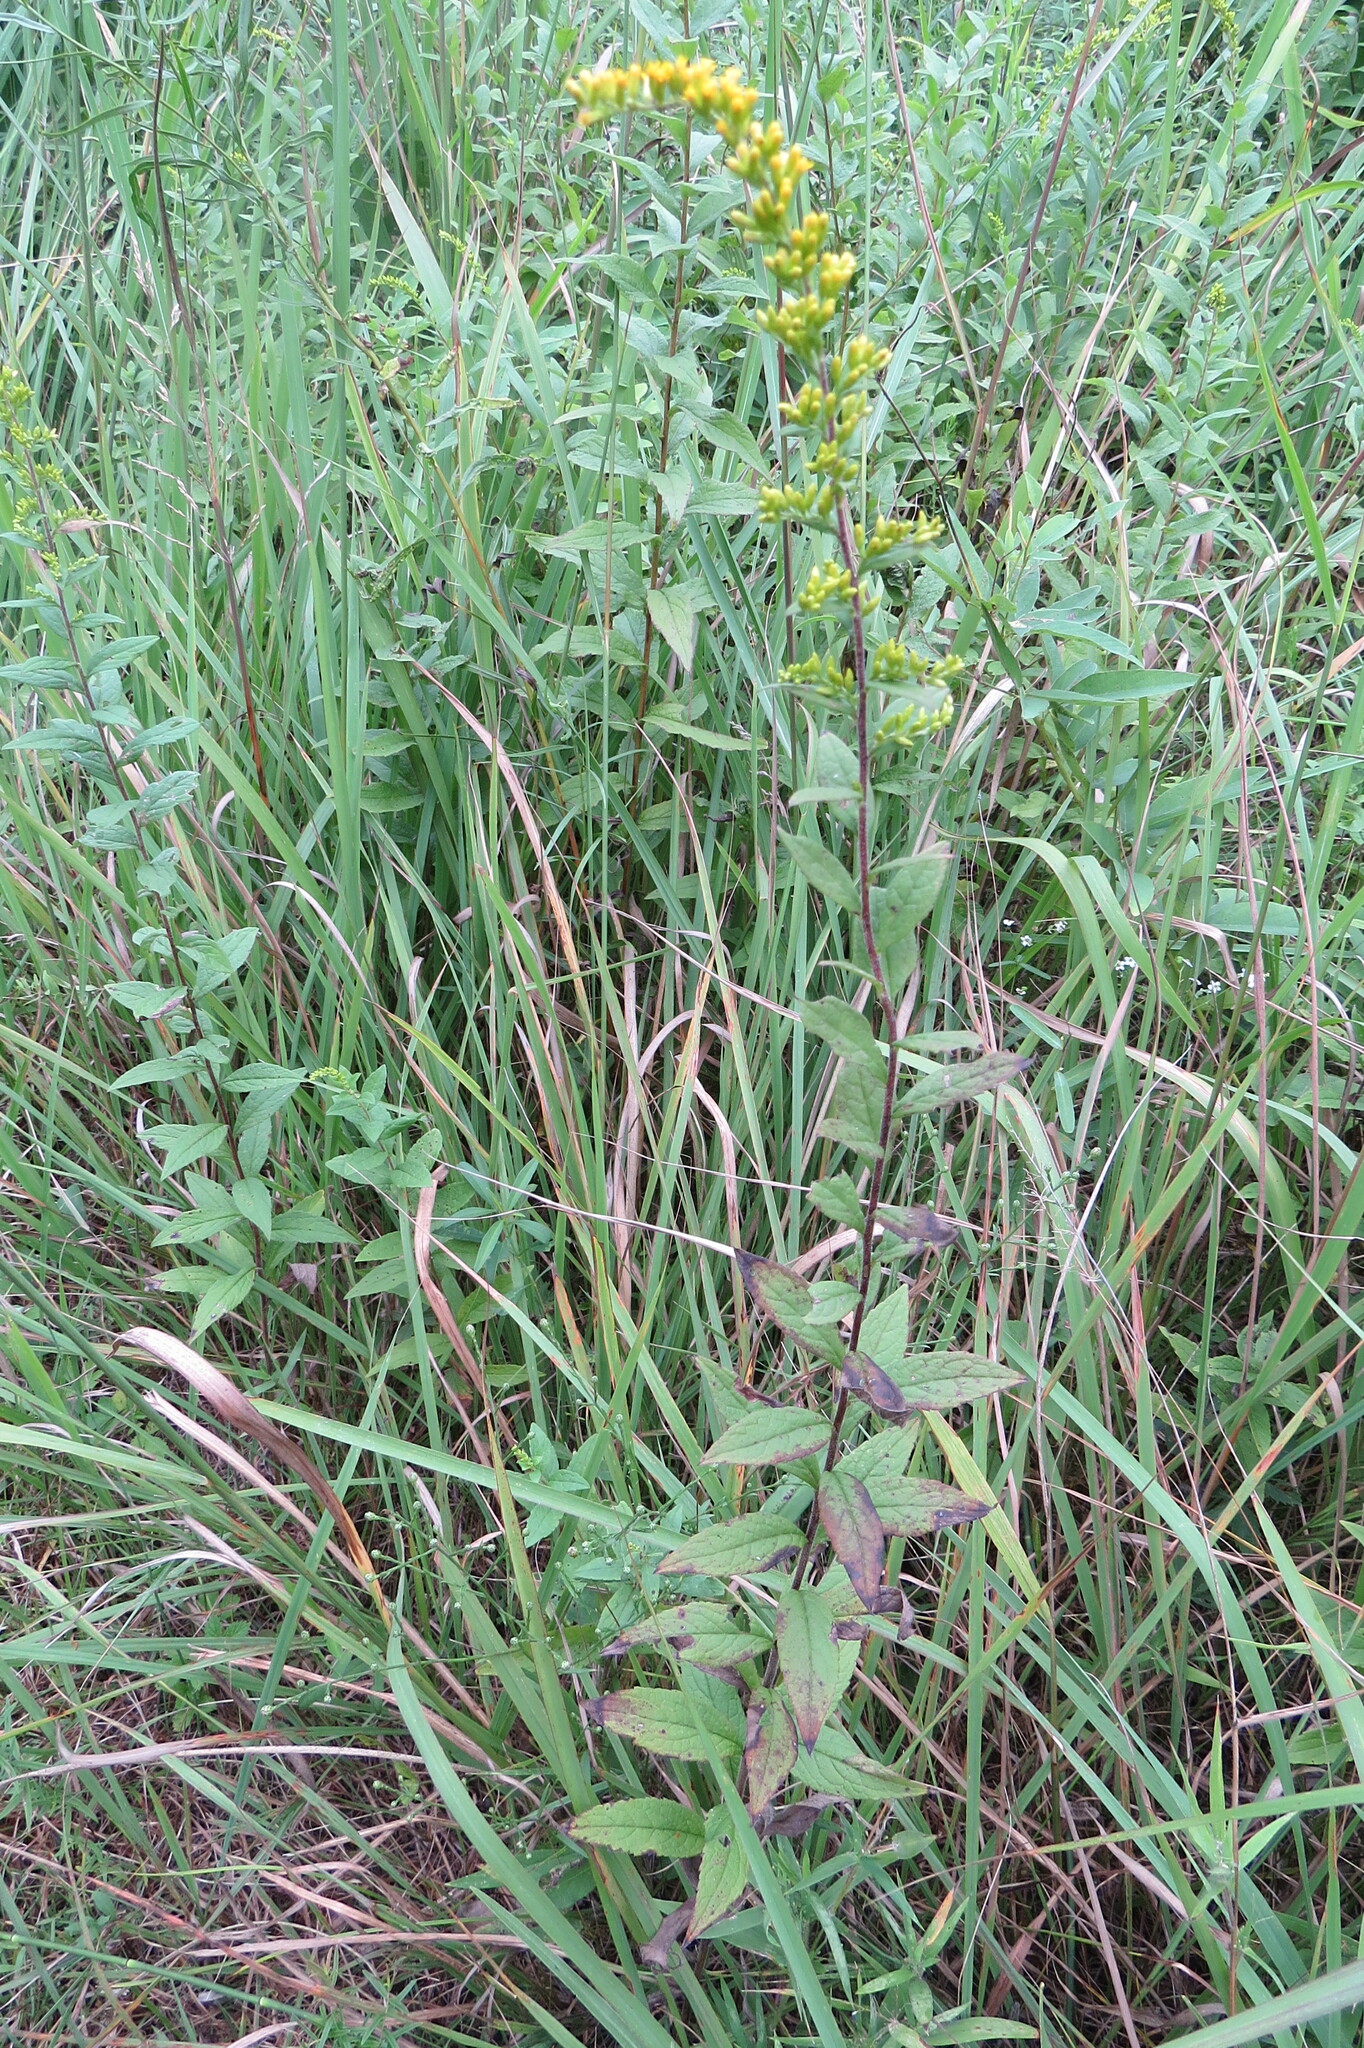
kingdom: Plantae
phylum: Tracheophyta
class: Magnoliopsida
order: Asterales
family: Asteraceae
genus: Solidago
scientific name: Solidago rugosa
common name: Rough-stemmed goldenrod
